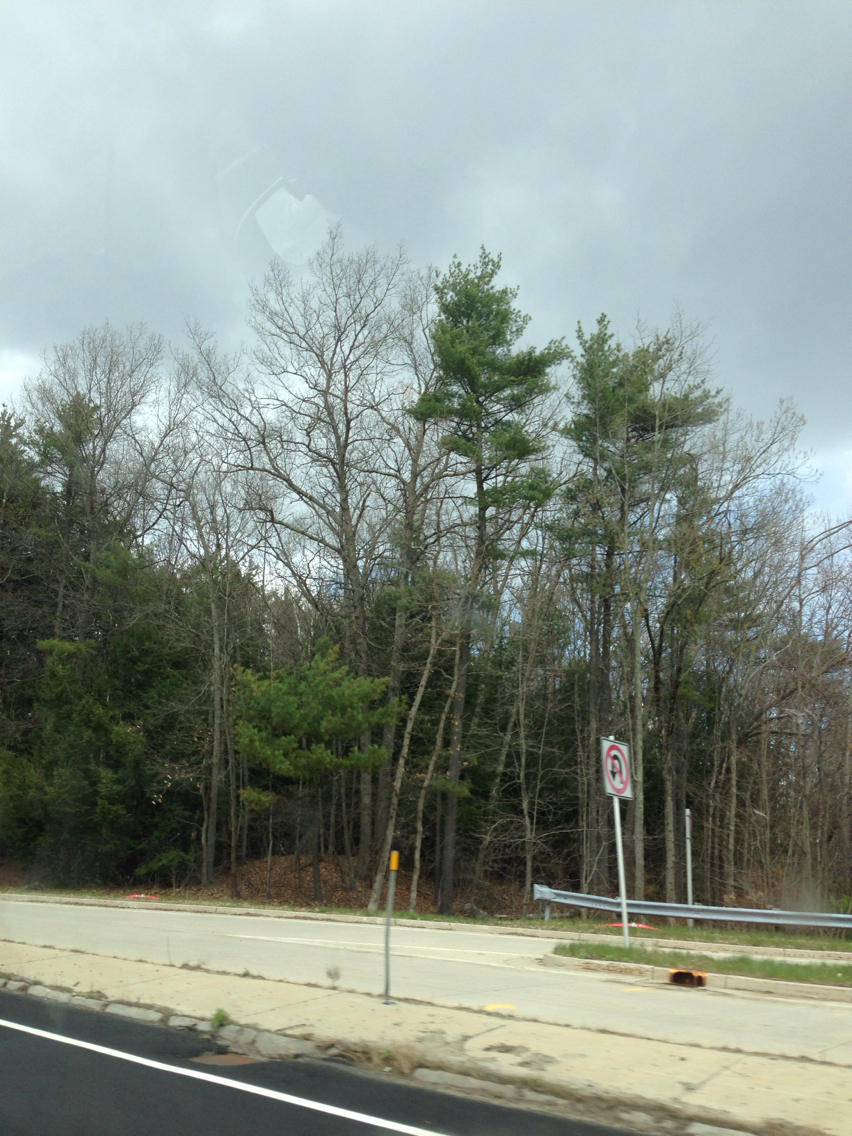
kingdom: Plantae
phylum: Tracheophyta
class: Pinopsida
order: Pinales
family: Pinaceae
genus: Pinus
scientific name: Pinus strobus
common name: Weymouth pine
